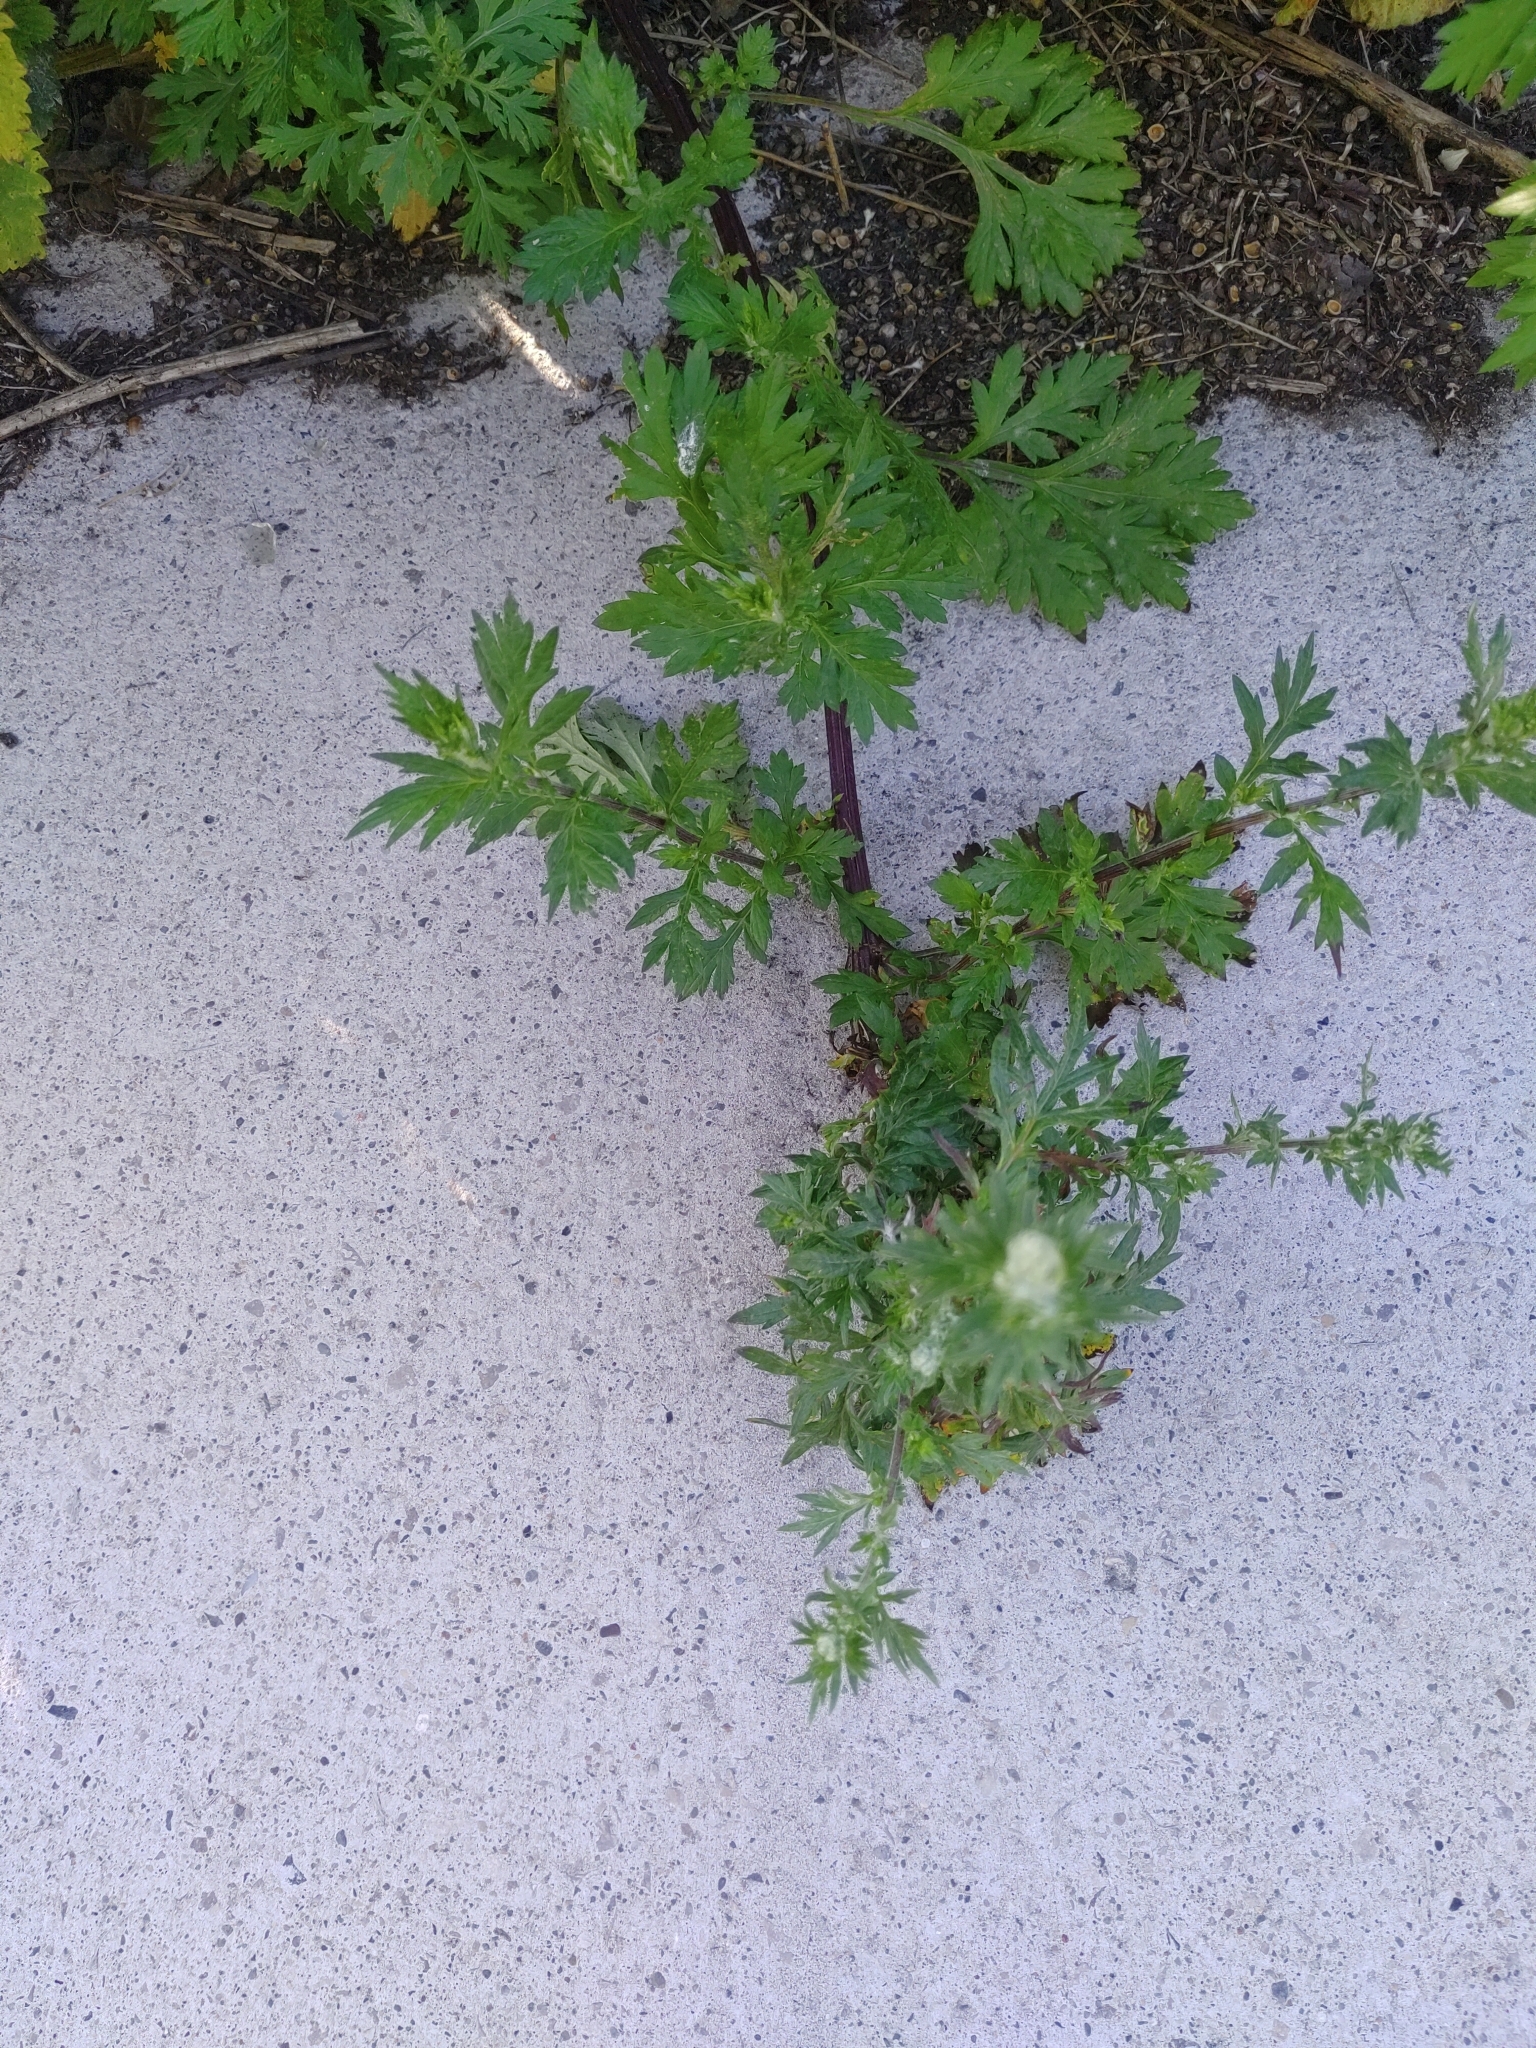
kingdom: Plantae
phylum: Tracheophyta
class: Magnoliopsida
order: Asterales
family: Asteraceae
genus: Artemisia
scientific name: Artemisia vulgaris
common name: Mugwort
